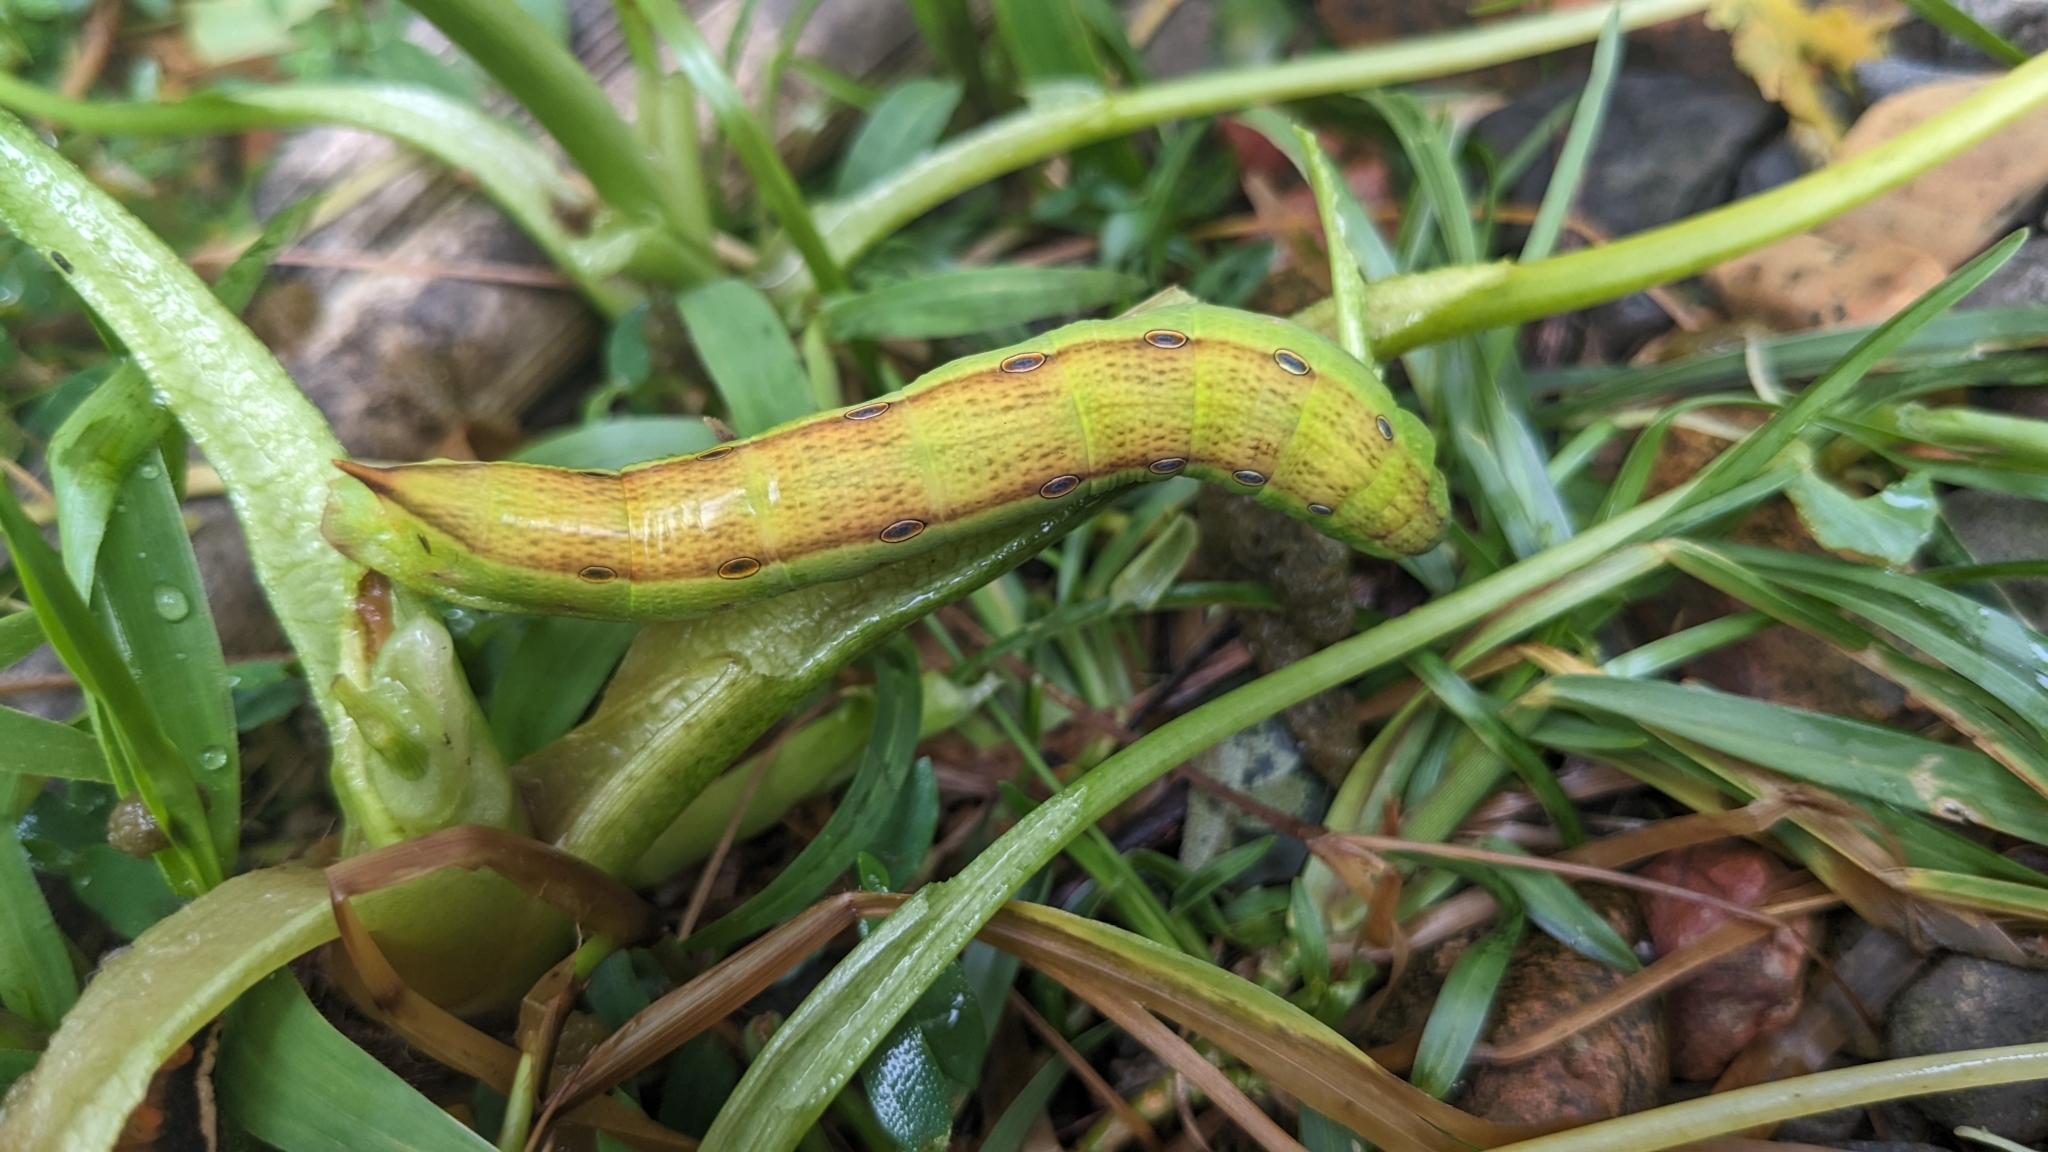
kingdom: Animalia
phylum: Arthropoda
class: Insecta
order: Lepidoptera
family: Sphingidae
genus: Theretra
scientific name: Theretra silhetensis
